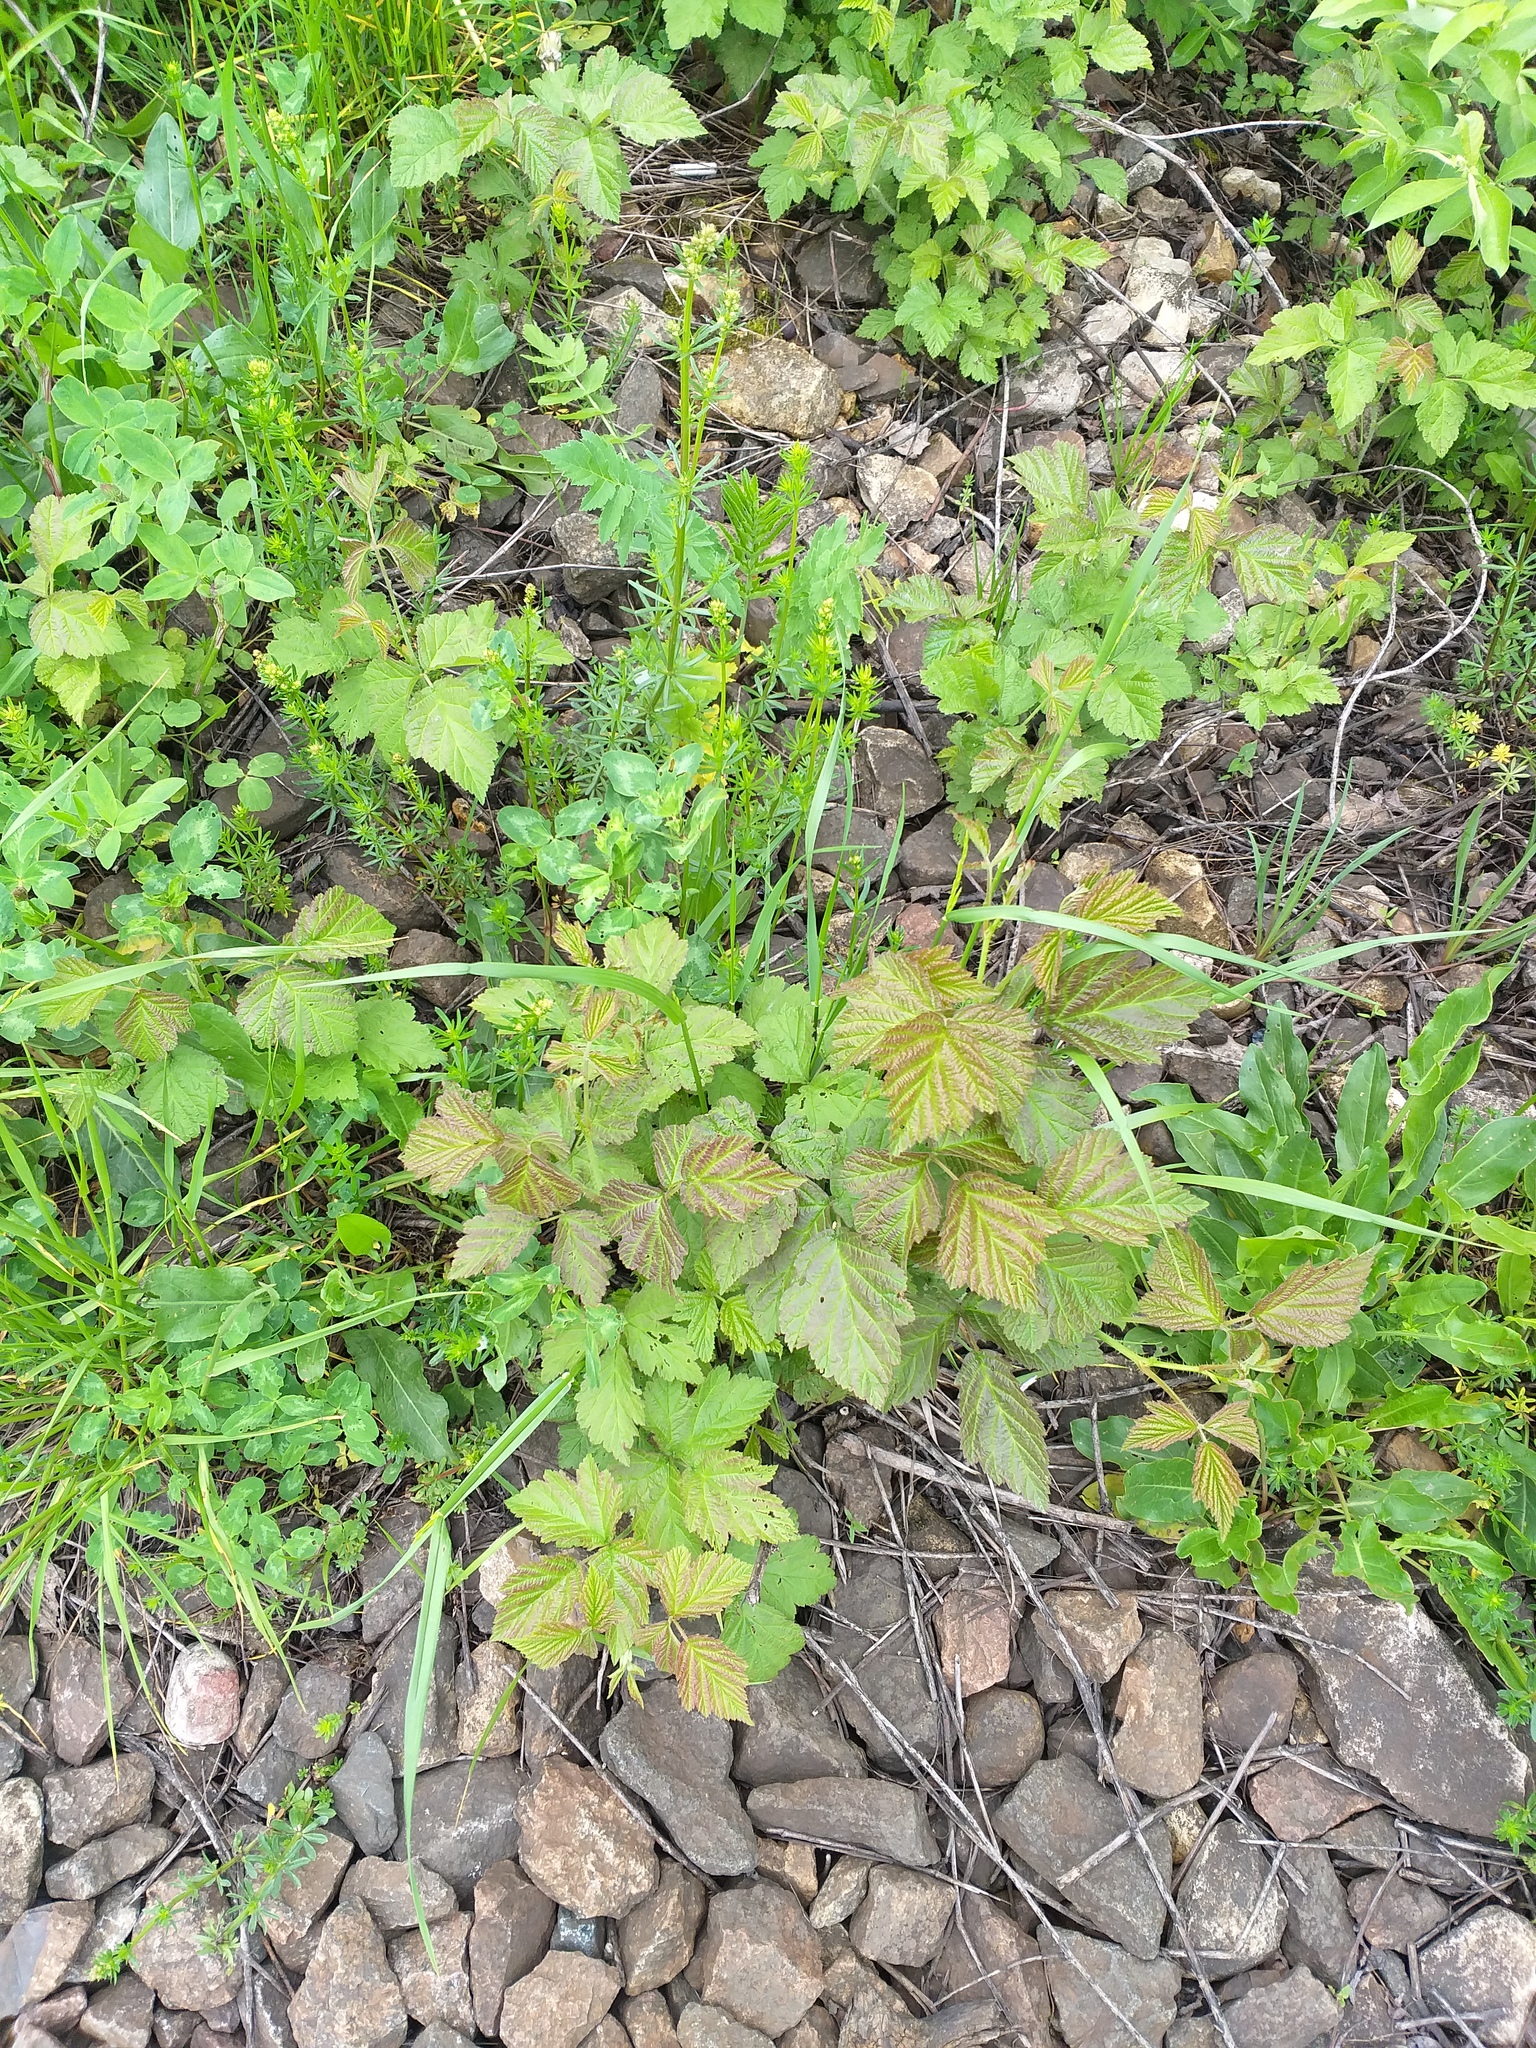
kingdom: Plantae
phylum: Tracheophyta
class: Magnoliopsida
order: Rosales
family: Rosaceae
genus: Rubus
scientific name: Rubus caesius
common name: Dewberry
